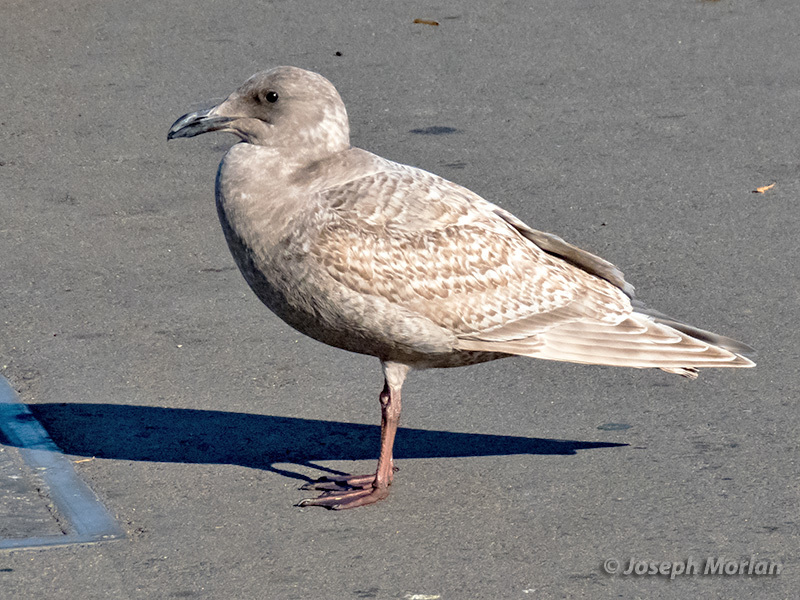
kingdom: Animalia
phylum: Chordata
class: Aves
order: Charadriiformes
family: Laridae
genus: Larus
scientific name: Larus
